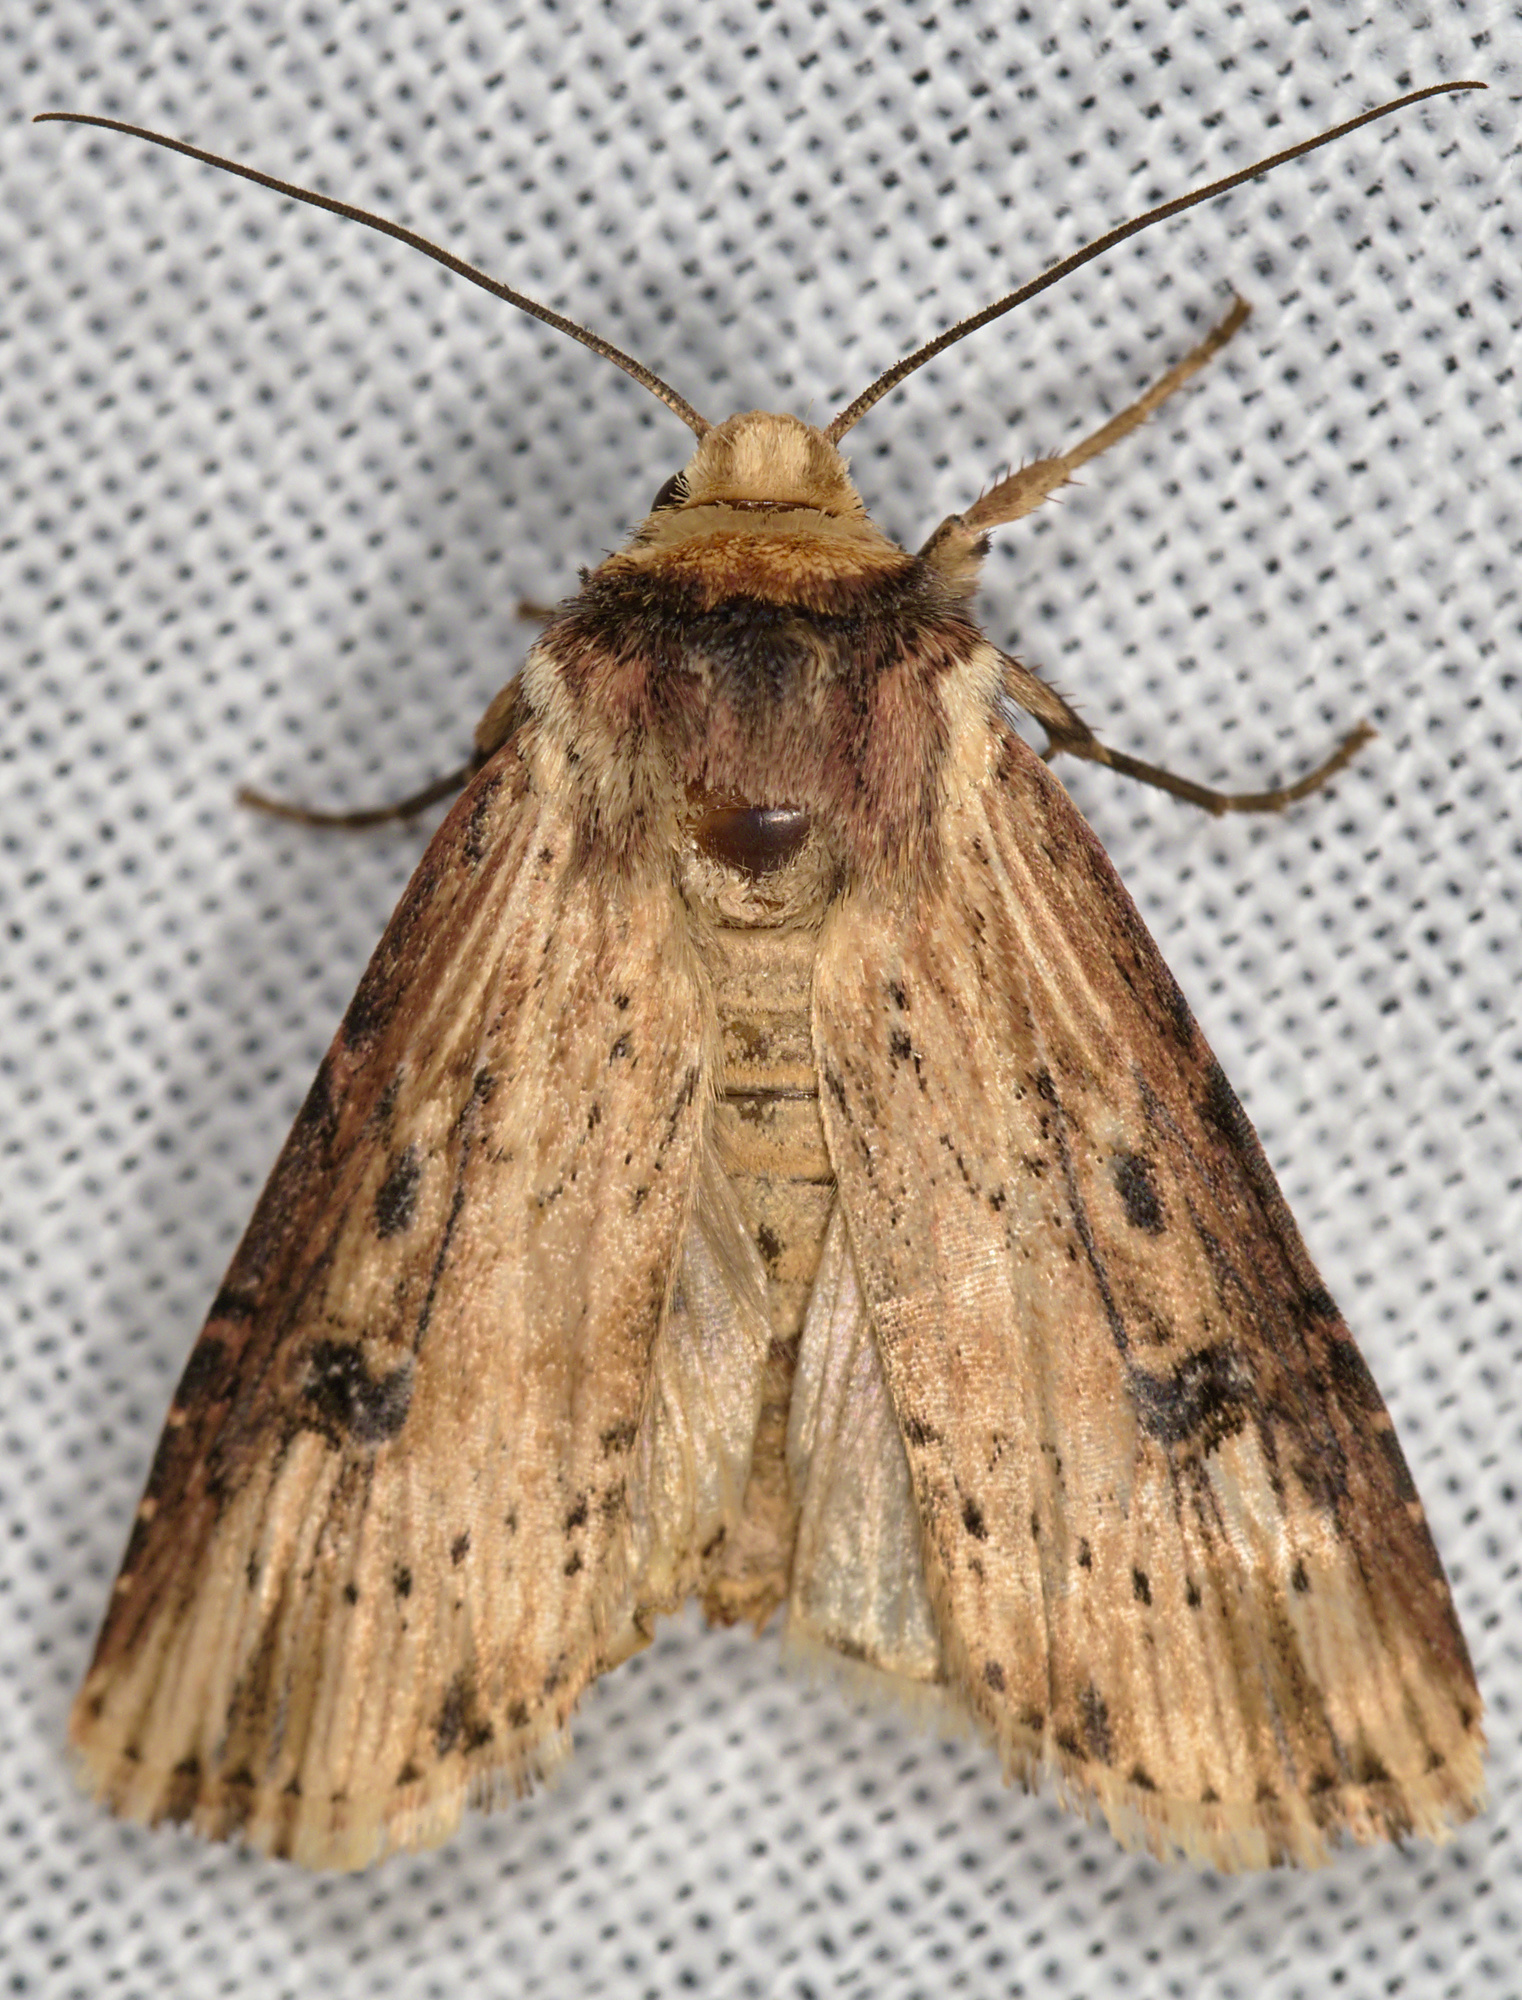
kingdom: Animalia
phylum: Arthropoda
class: Insecta
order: Lepidoptera
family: Noctuidae
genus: Axylia
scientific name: Axylia putris
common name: Flame
